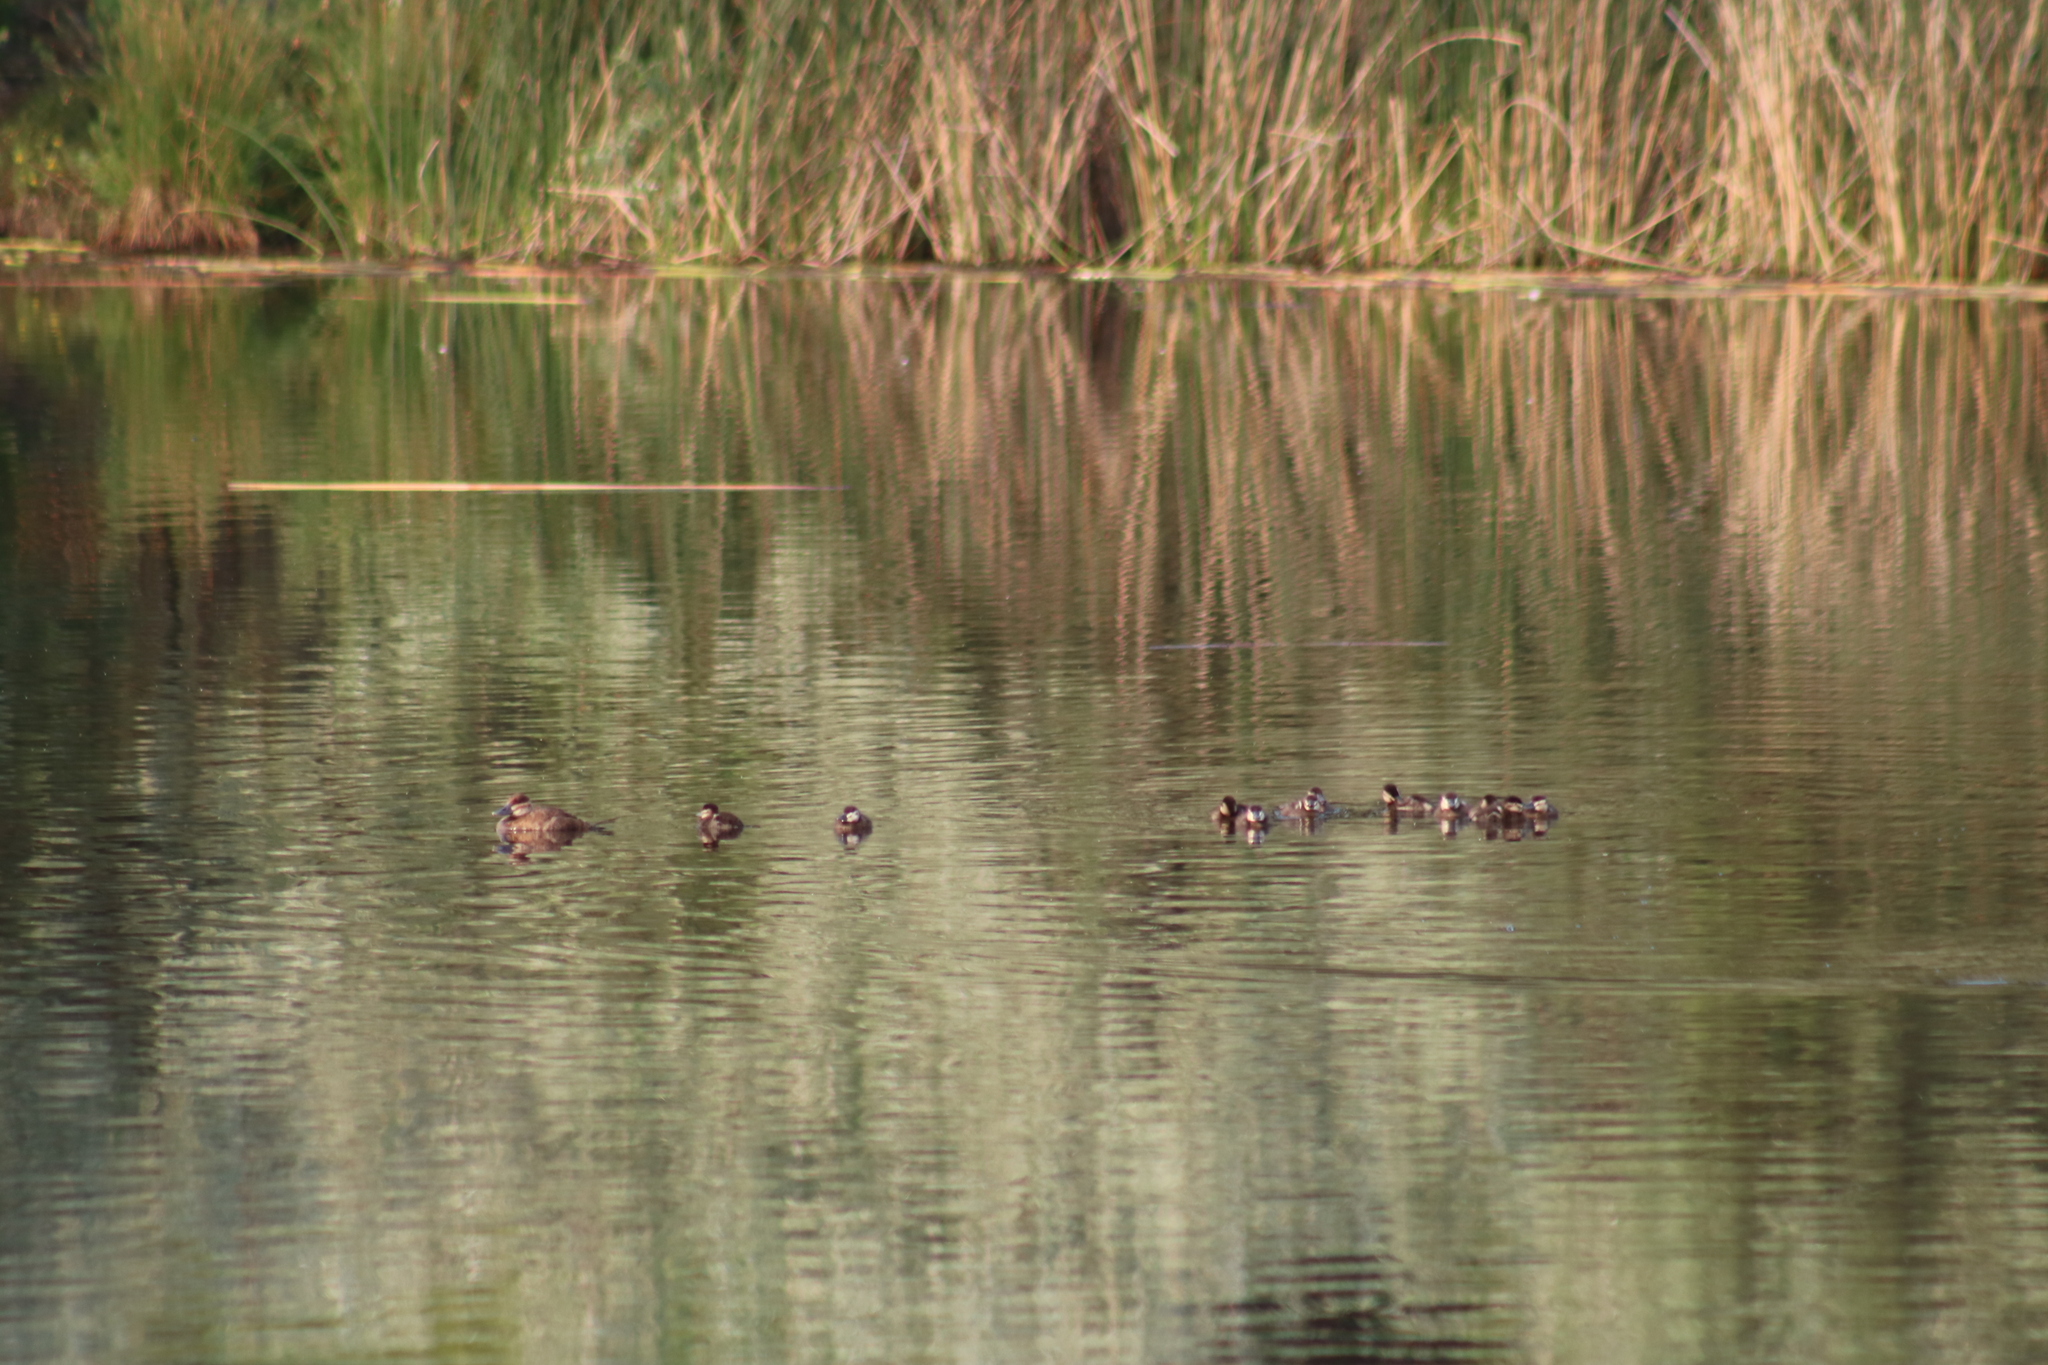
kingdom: Animalia
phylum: Chordata
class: Aves
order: Anseriformes
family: Anatidae
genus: Oxyura
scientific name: Oxyura jamaicensis
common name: Ruddy duck
